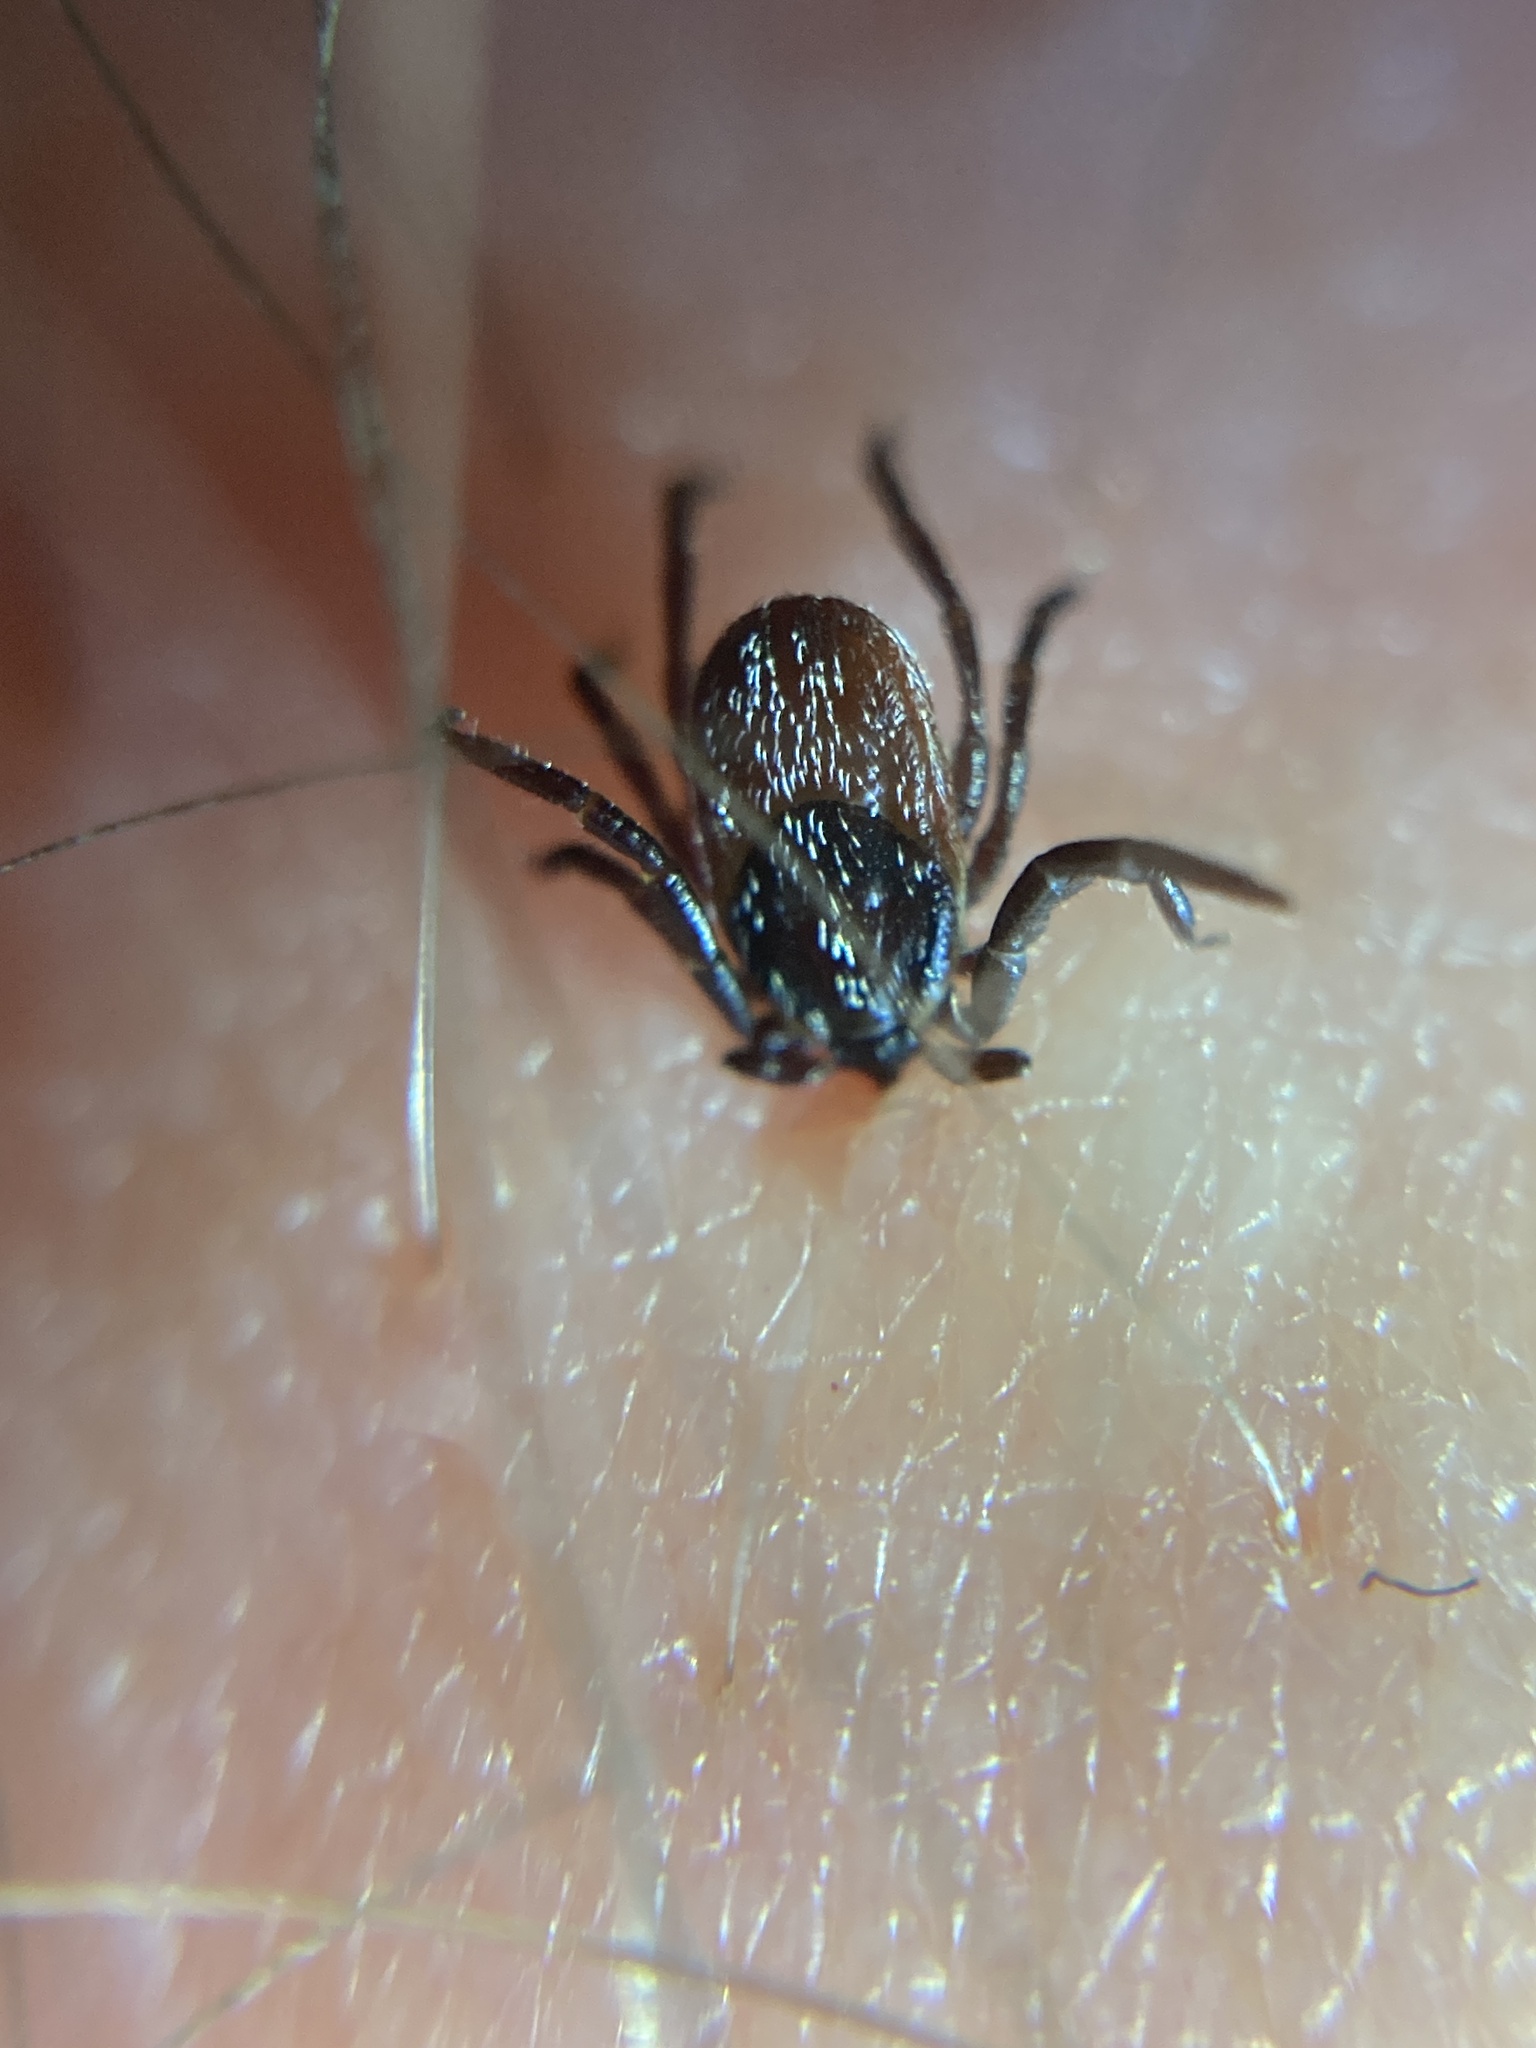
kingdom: Animalia
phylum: Arthropoda
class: Arachnida
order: Ixodida
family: Ixodidae
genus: Ixodes
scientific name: Ixodes pacificus
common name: California black-legged tick
